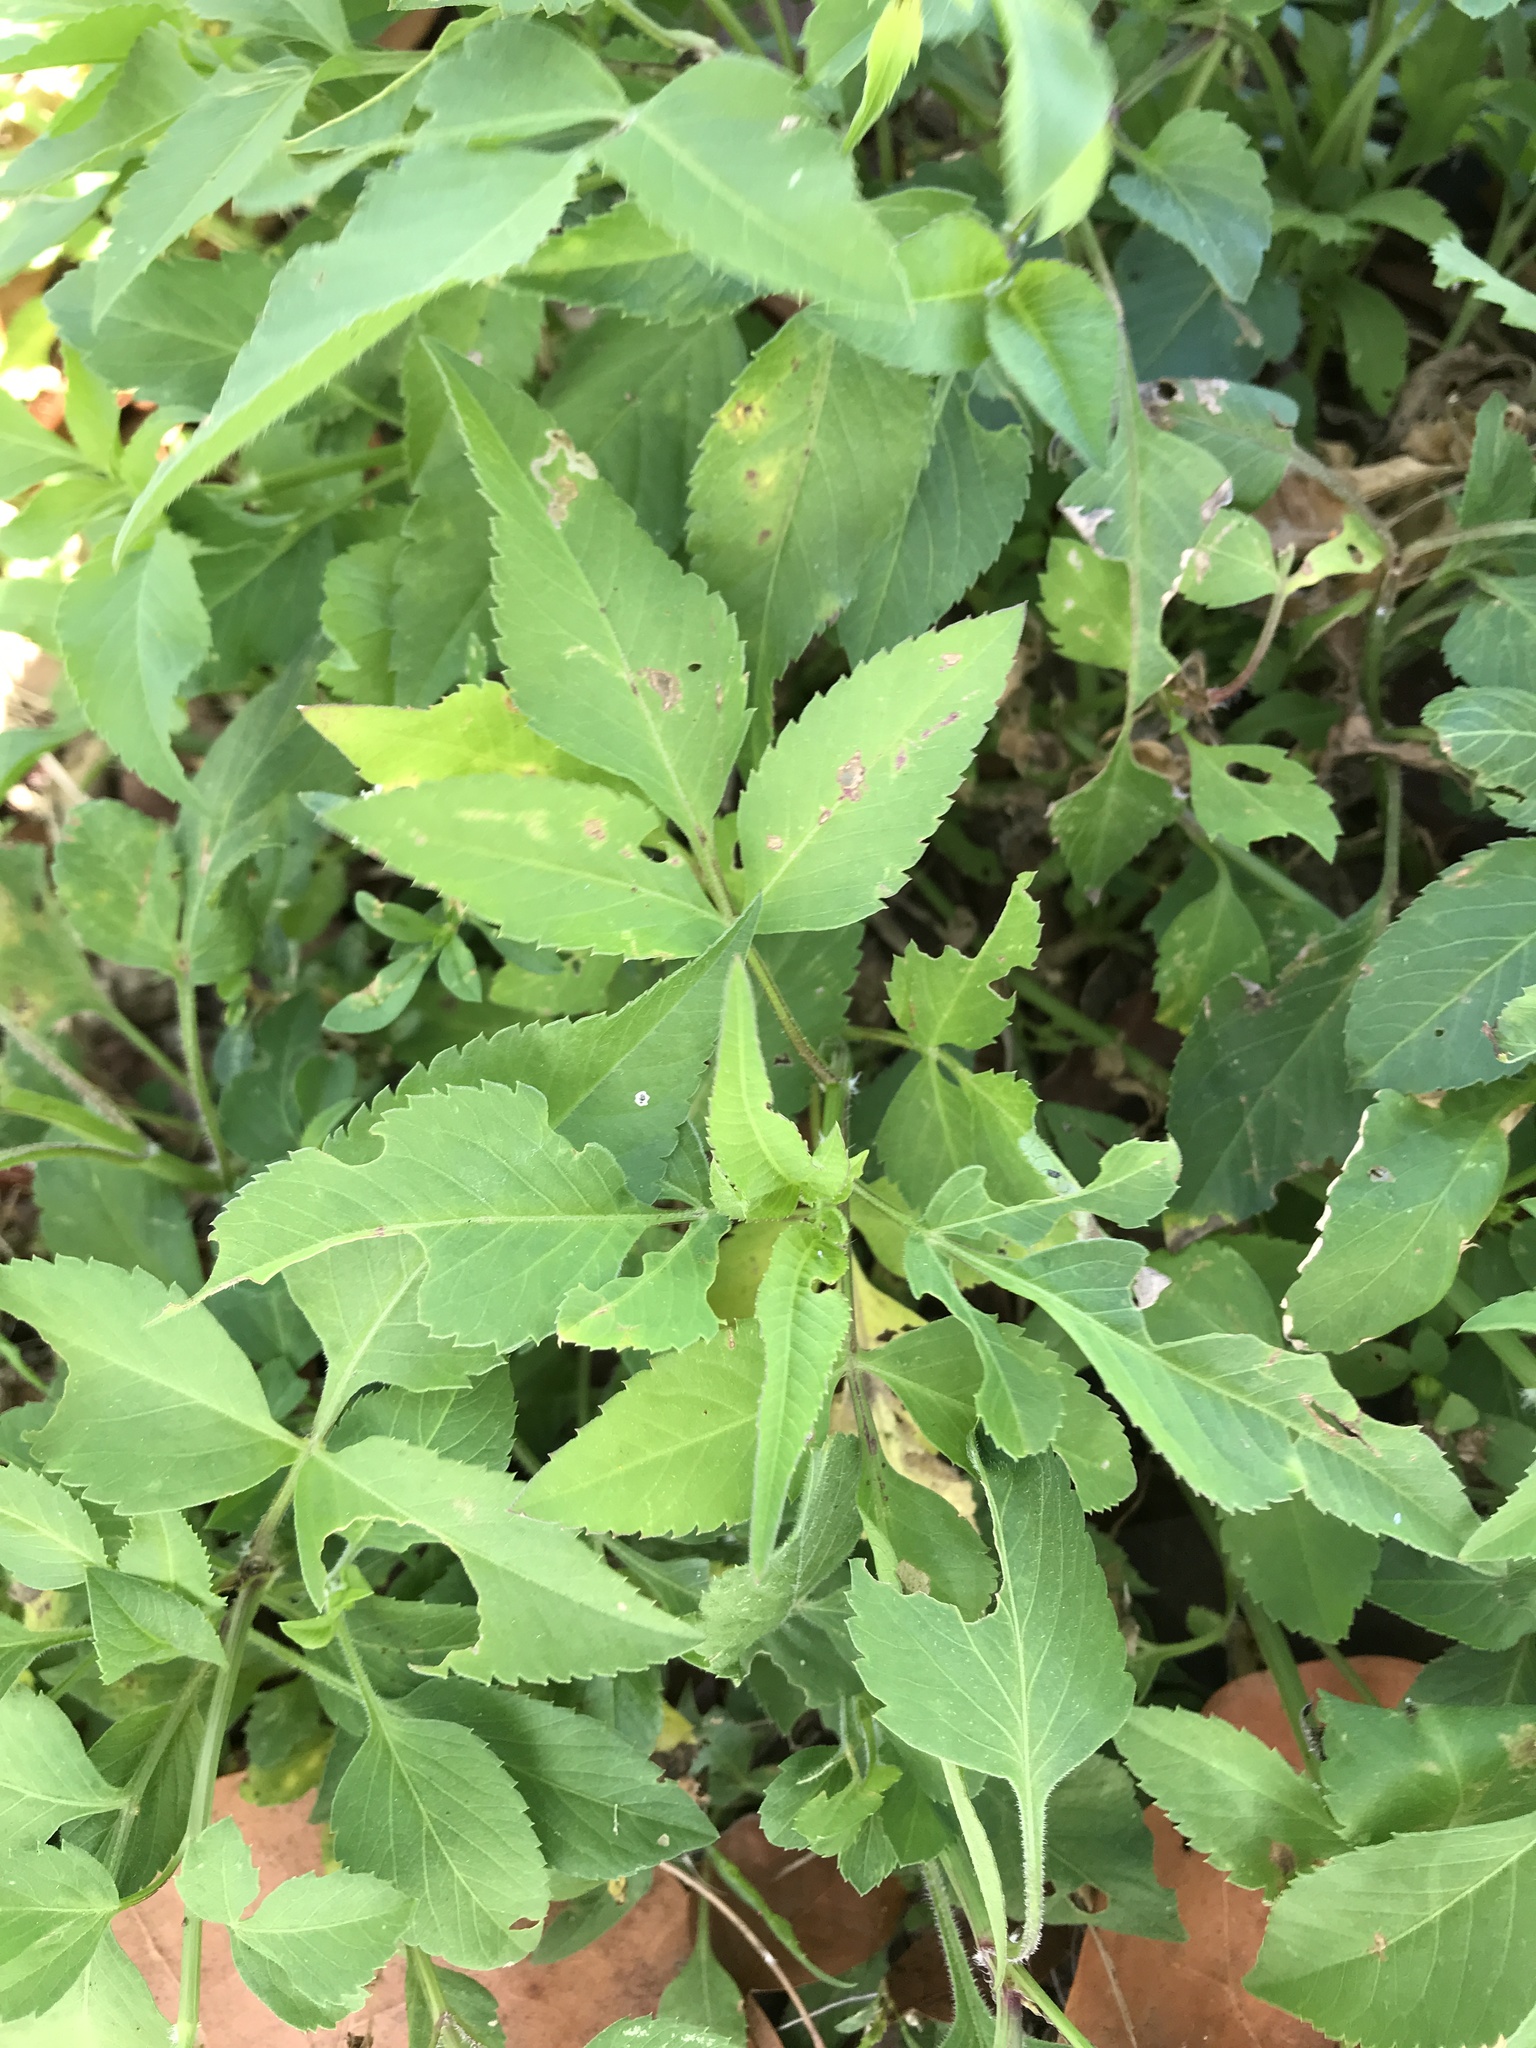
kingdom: Plantae
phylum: Tracheophyta
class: Magnoliopsida
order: Asterales
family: Asteraceae
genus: Bidens
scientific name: Bidens alba
